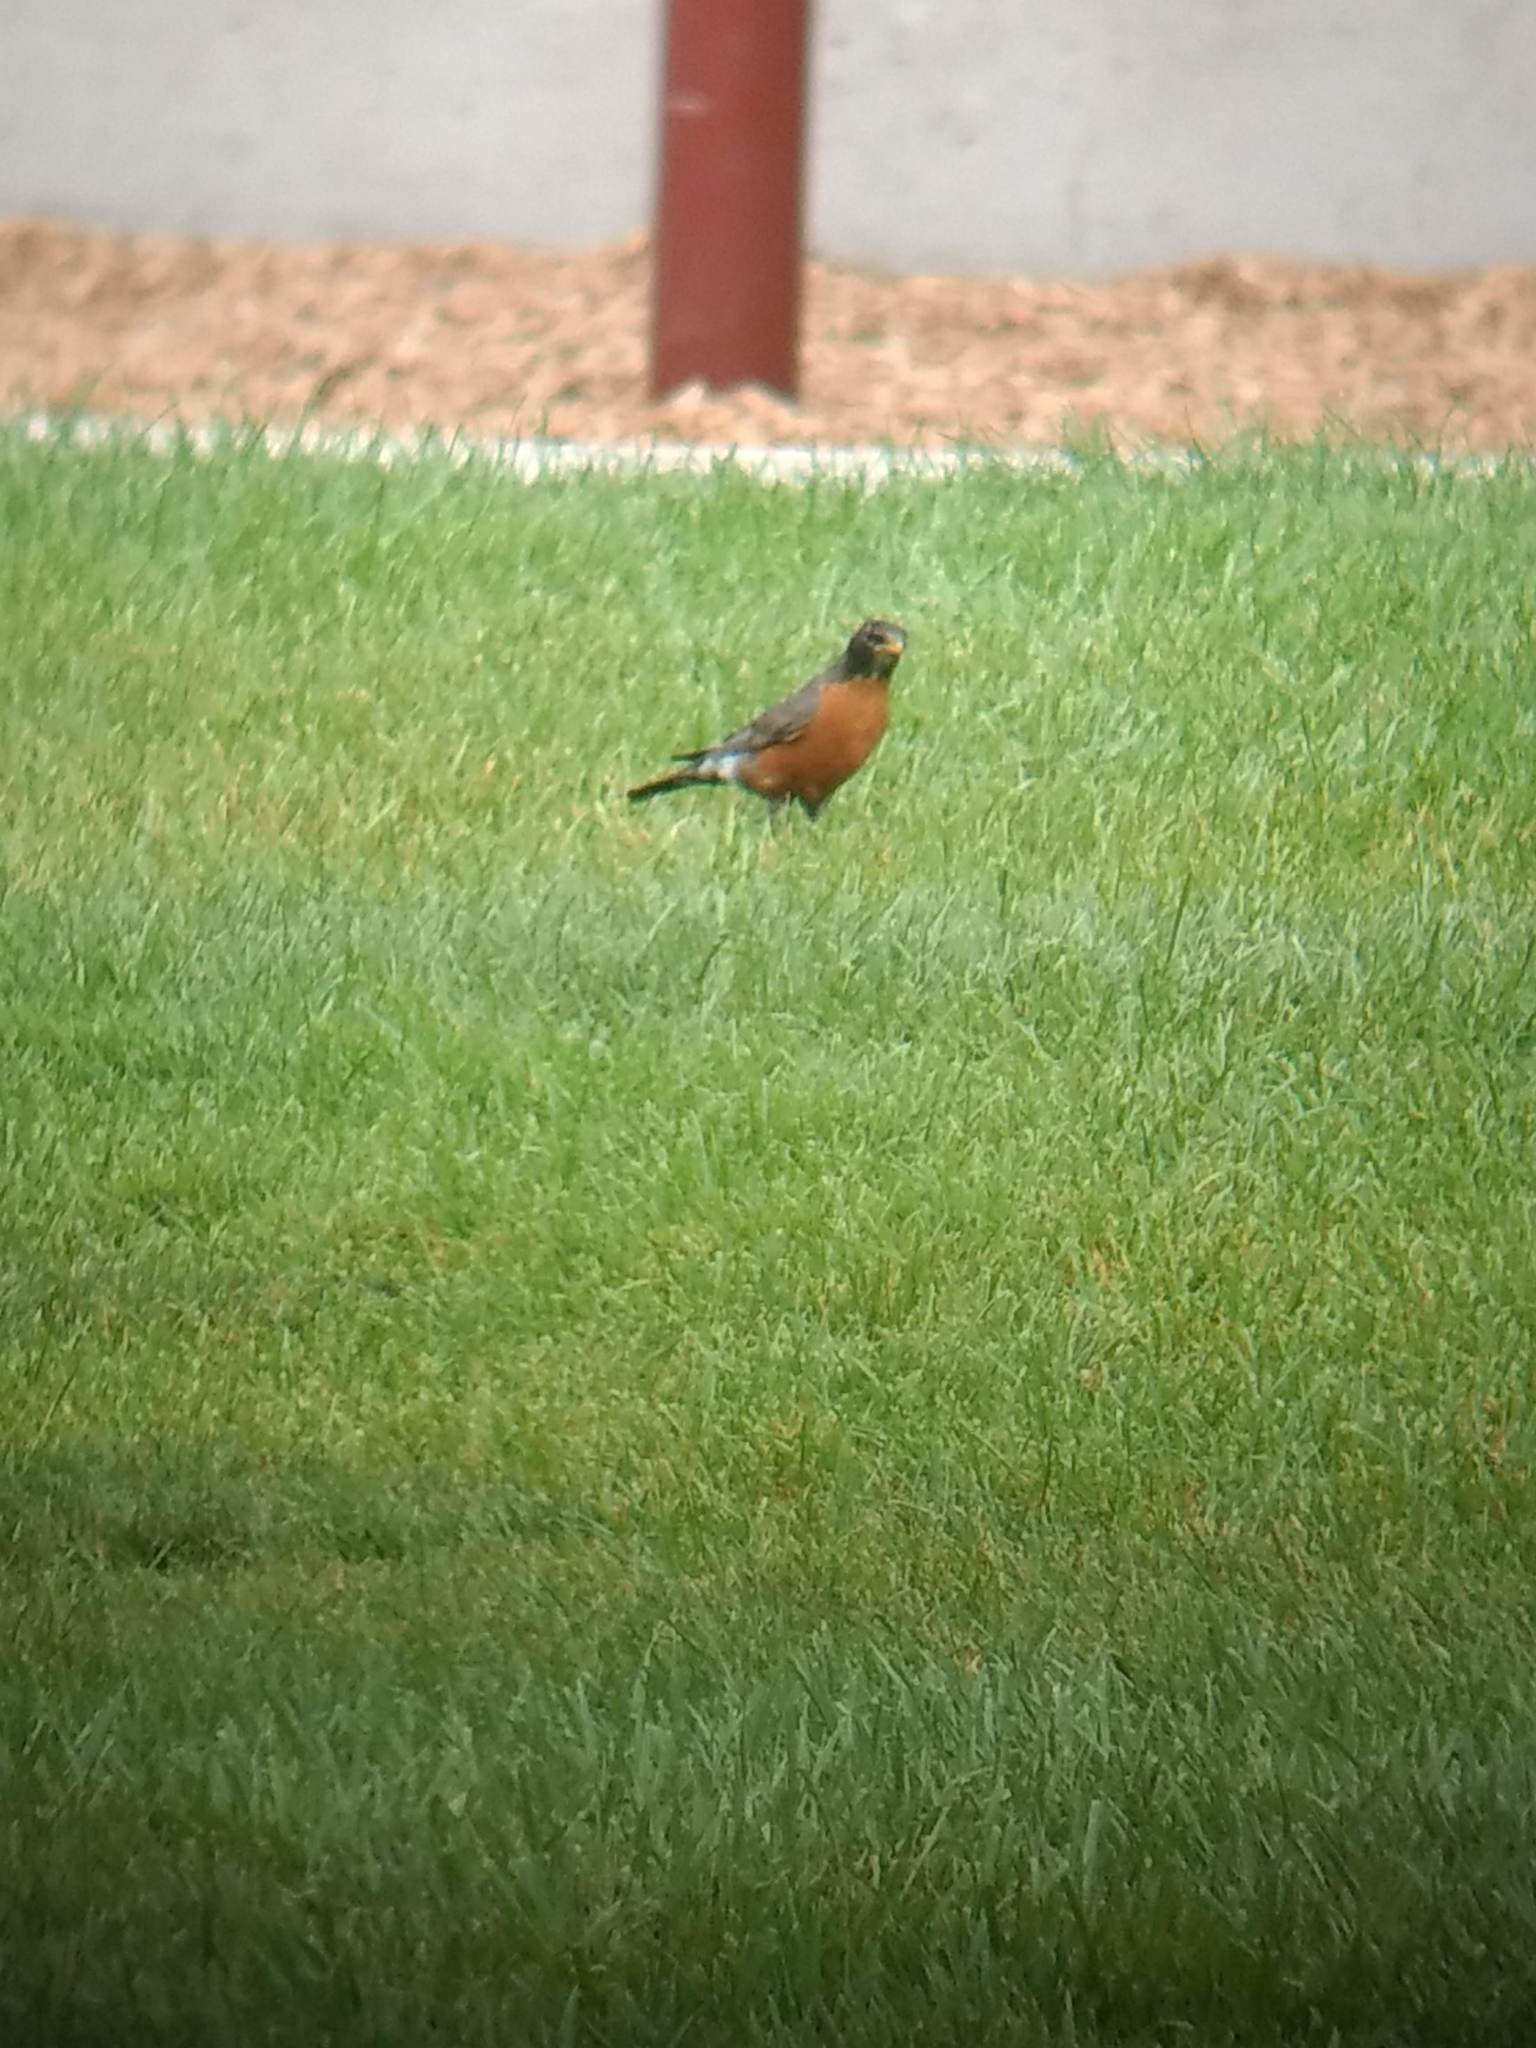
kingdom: Animalia
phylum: Chordata
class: Aves
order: Passeriformes
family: Turdidae
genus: Turdus
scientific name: Turdus migratorius
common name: American robin
